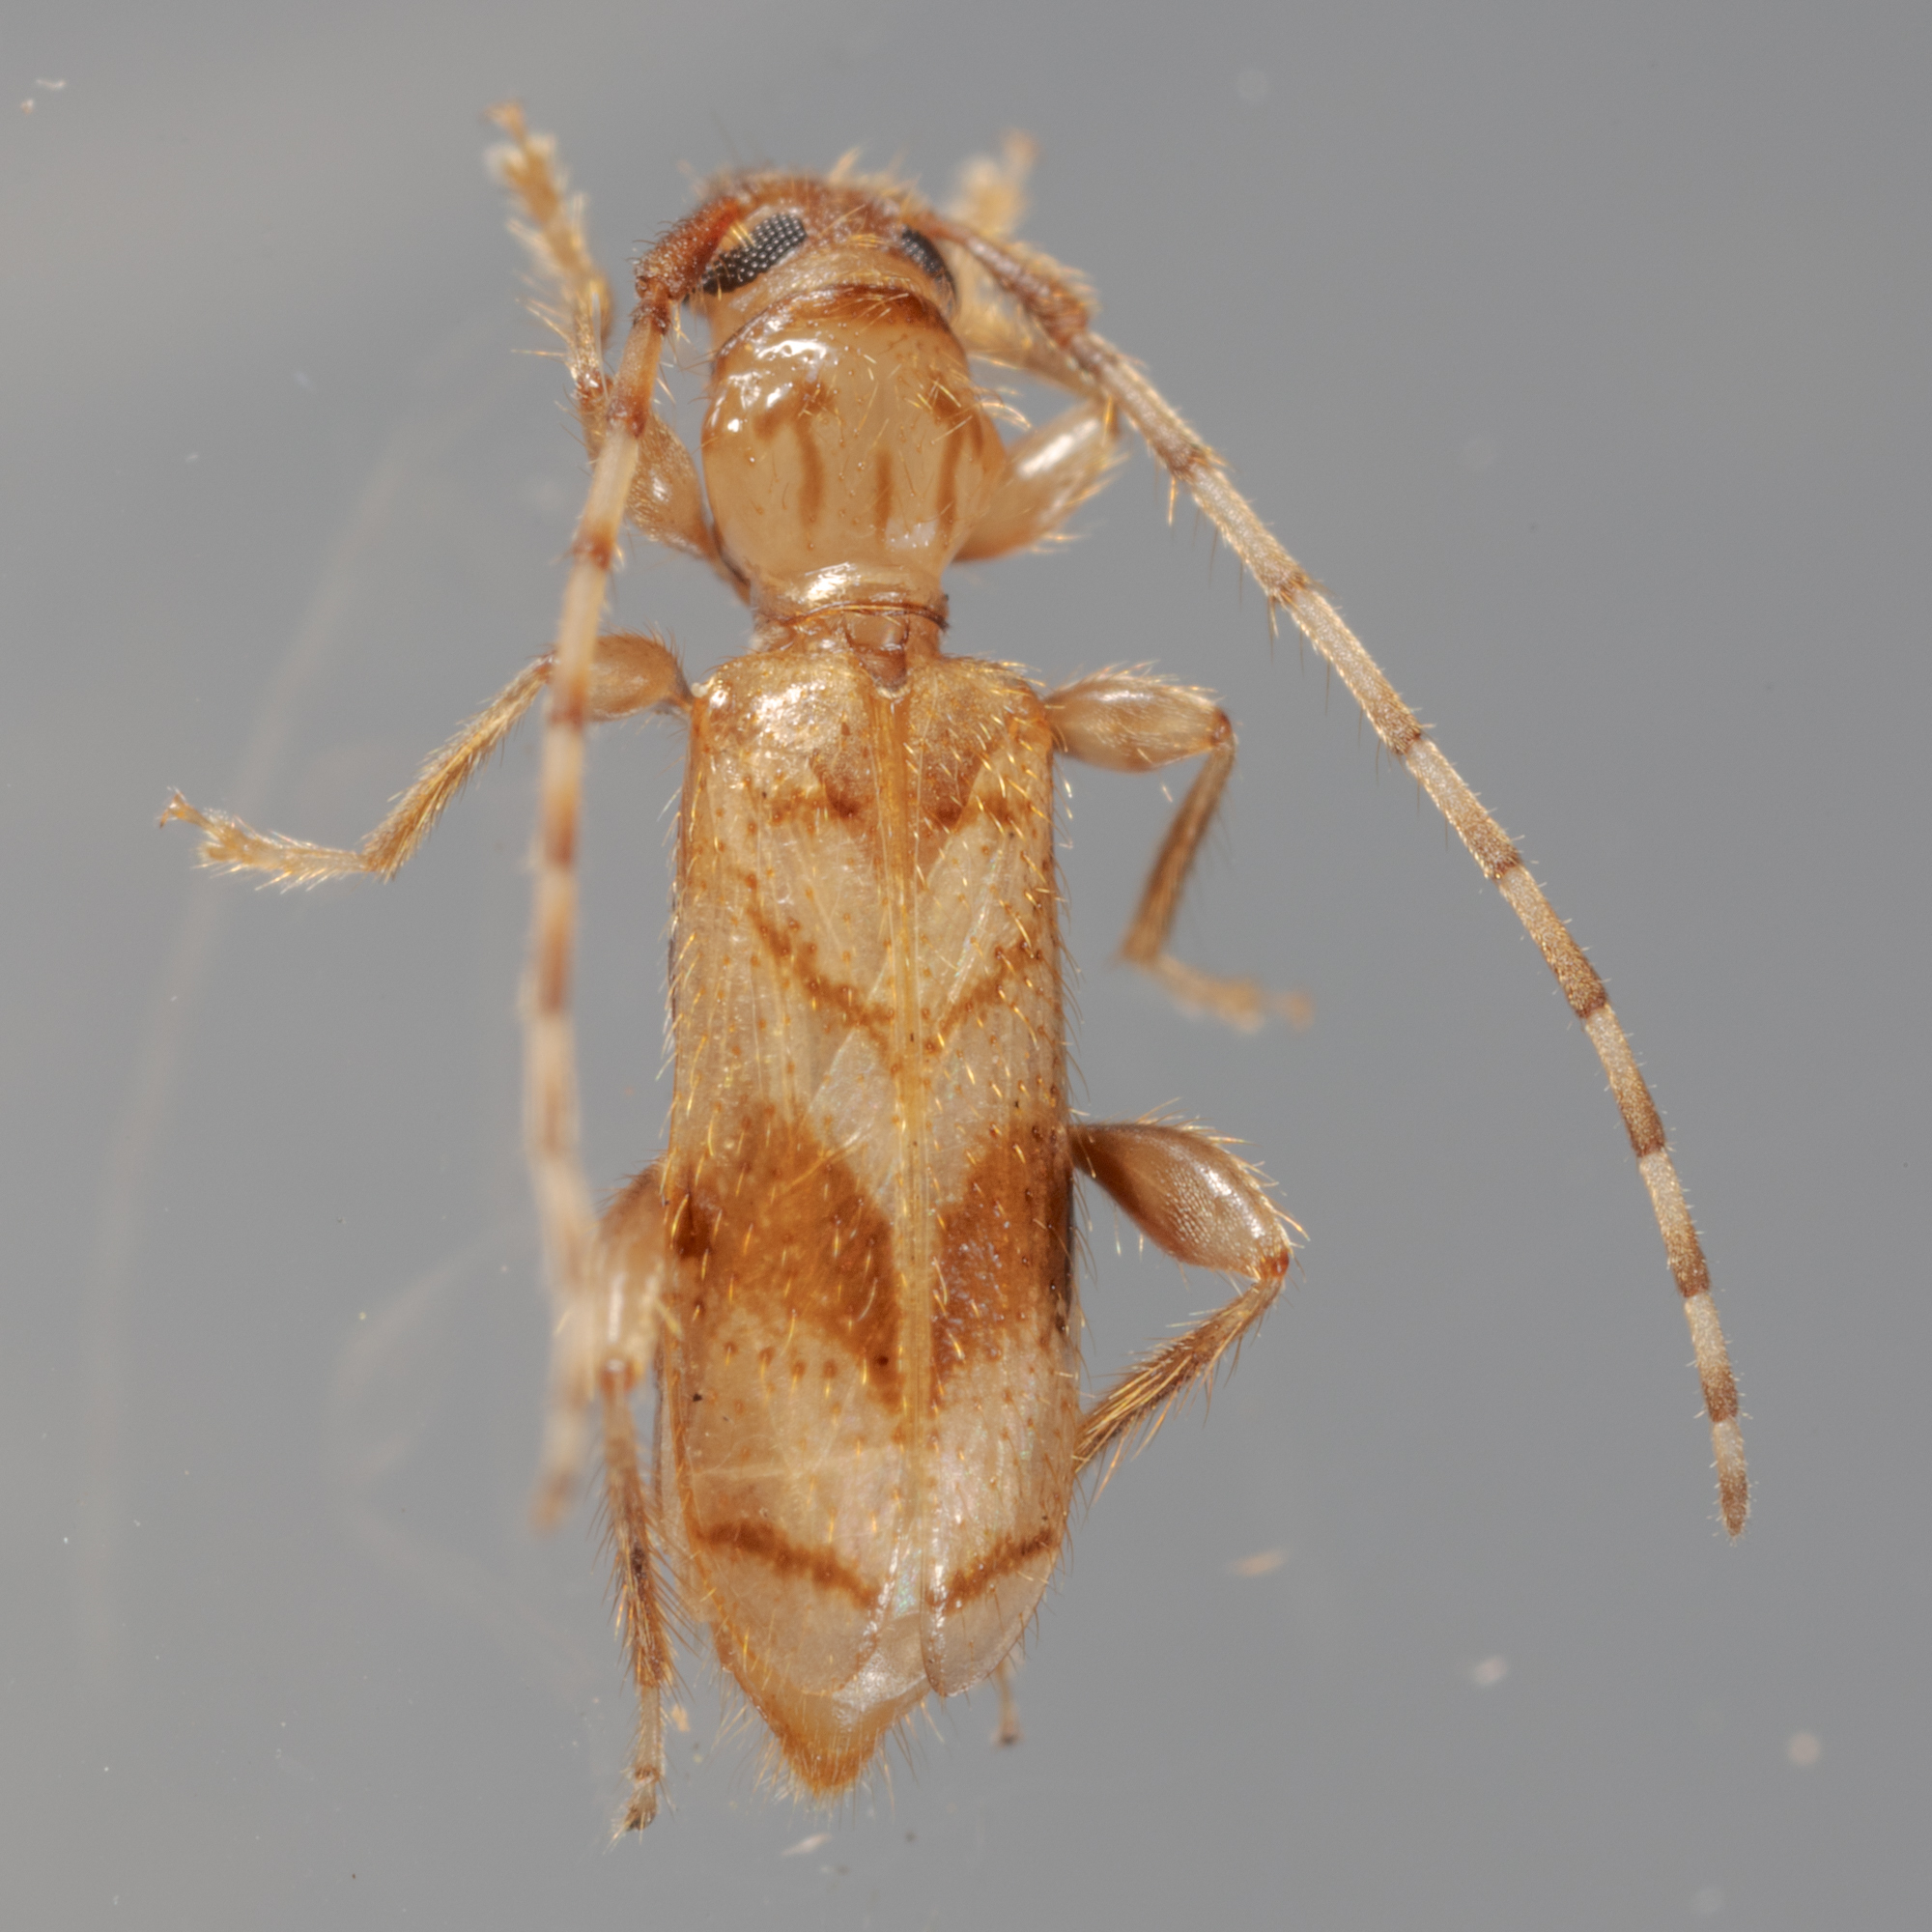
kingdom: Animalia
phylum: Arthropoda
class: Insecta
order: Coleoptera
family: Cerambycidae
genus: Obrium
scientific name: Obrium maculatum
